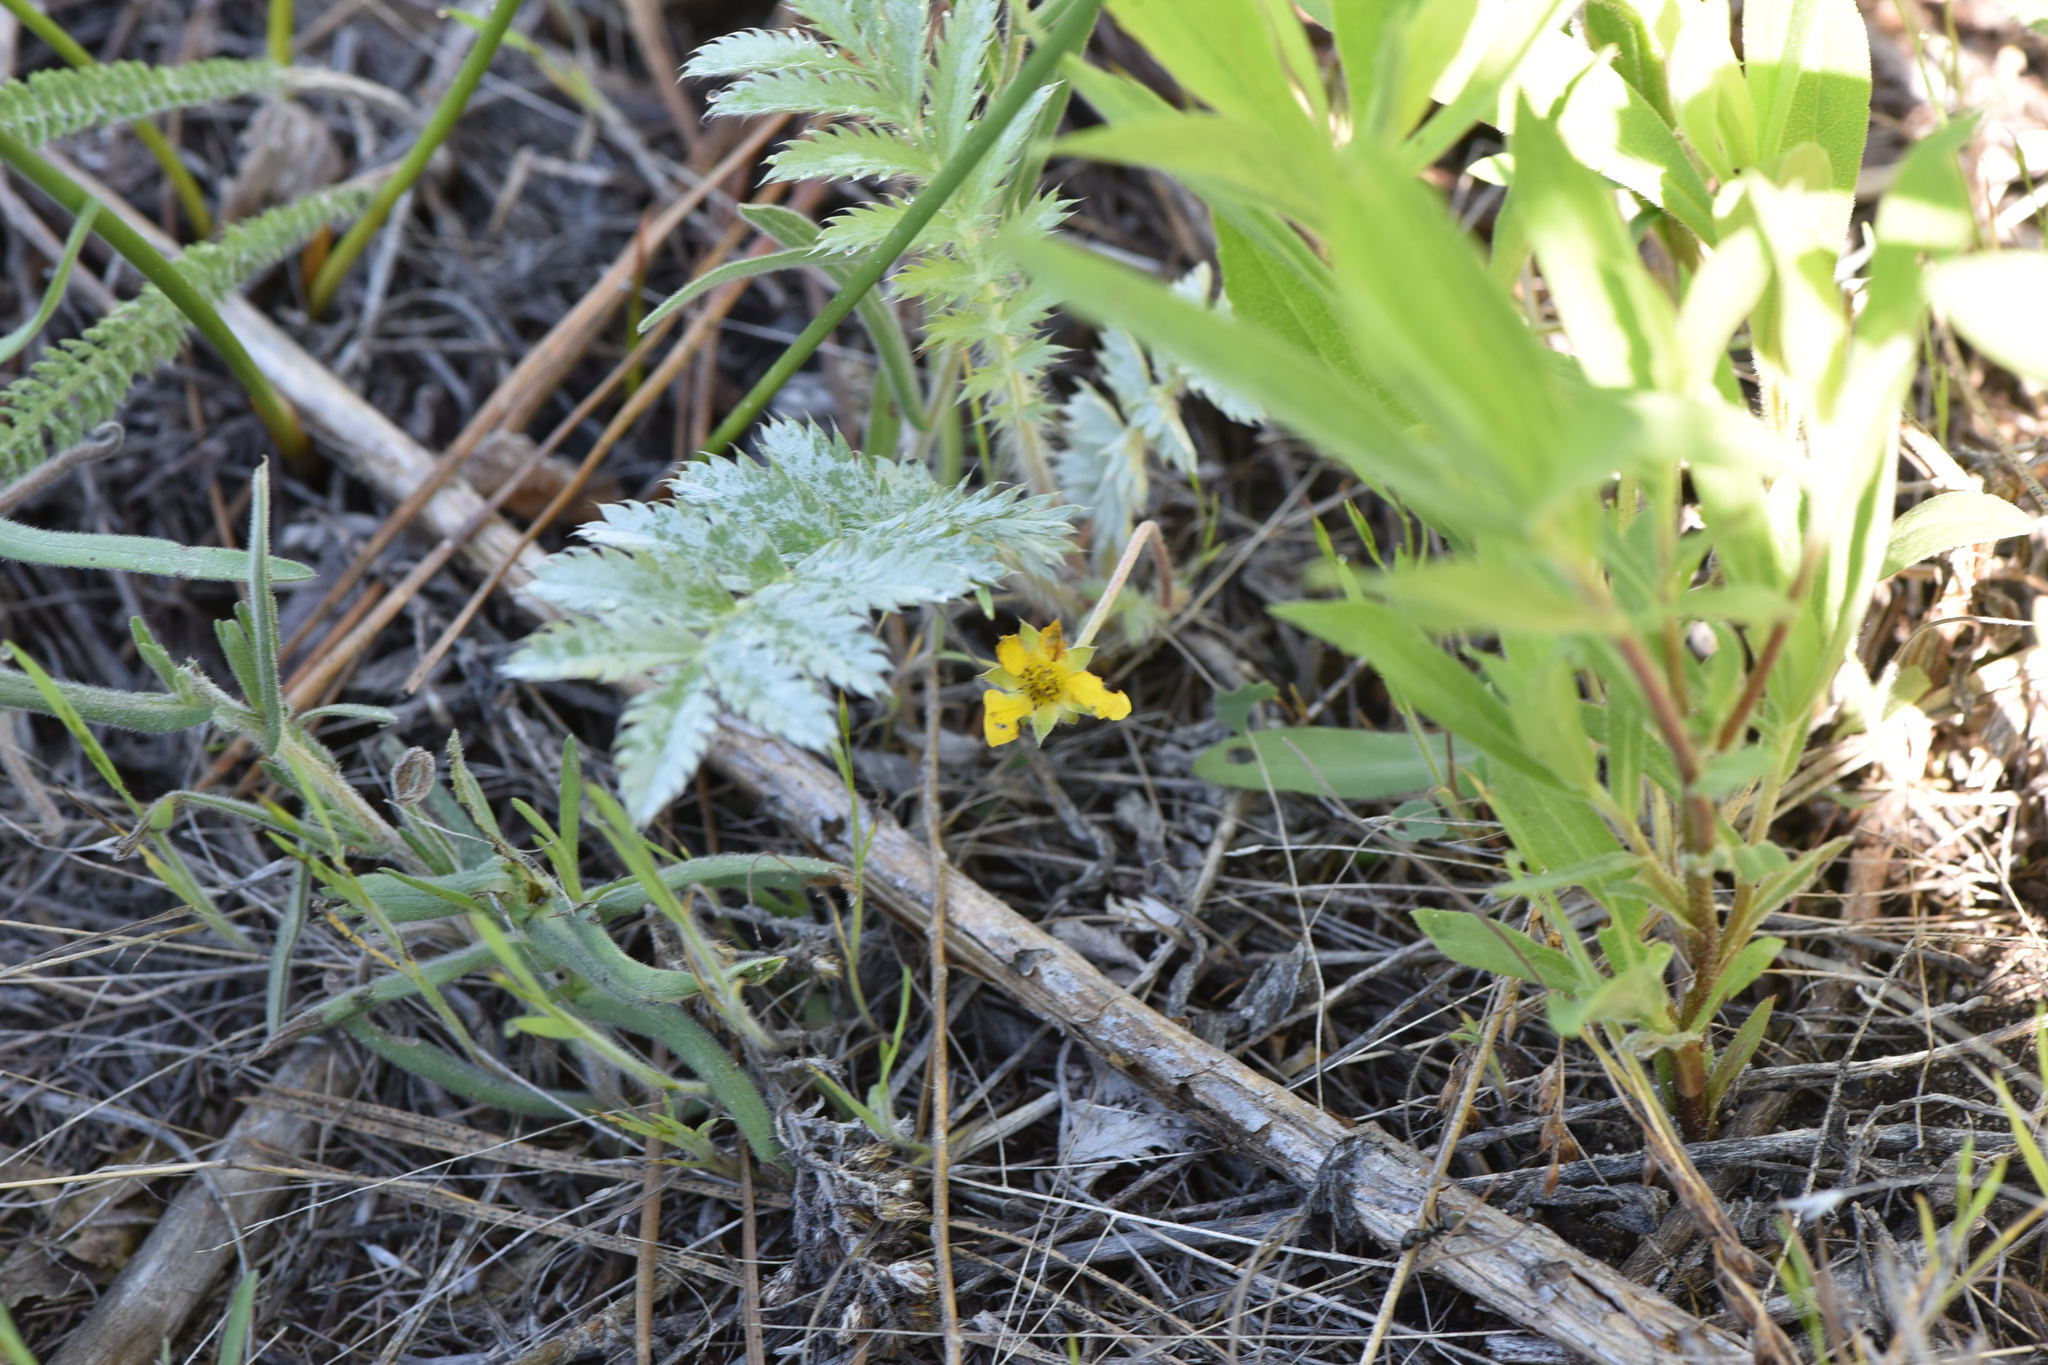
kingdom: Plantae
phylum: Tracheophyta
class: Magnoliopsida
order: Rosales
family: Rosaceae
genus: Argentina
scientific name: Argentina anserina
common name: Common silverweed
